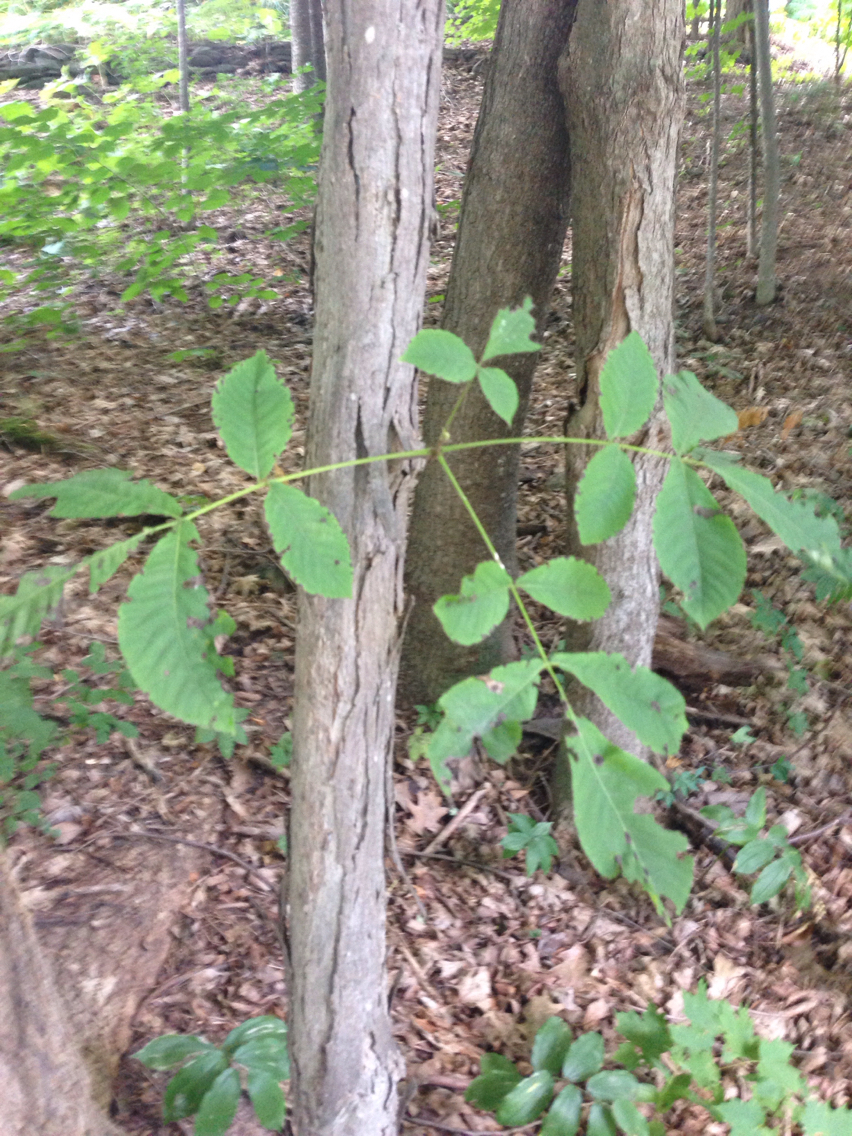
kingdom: Plantae
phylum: Tracheophyta
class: Magnoliopsida
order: Fagales
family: Juglandaceae
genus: Carya
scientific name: Carya ovata
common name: Shagbark hickory
